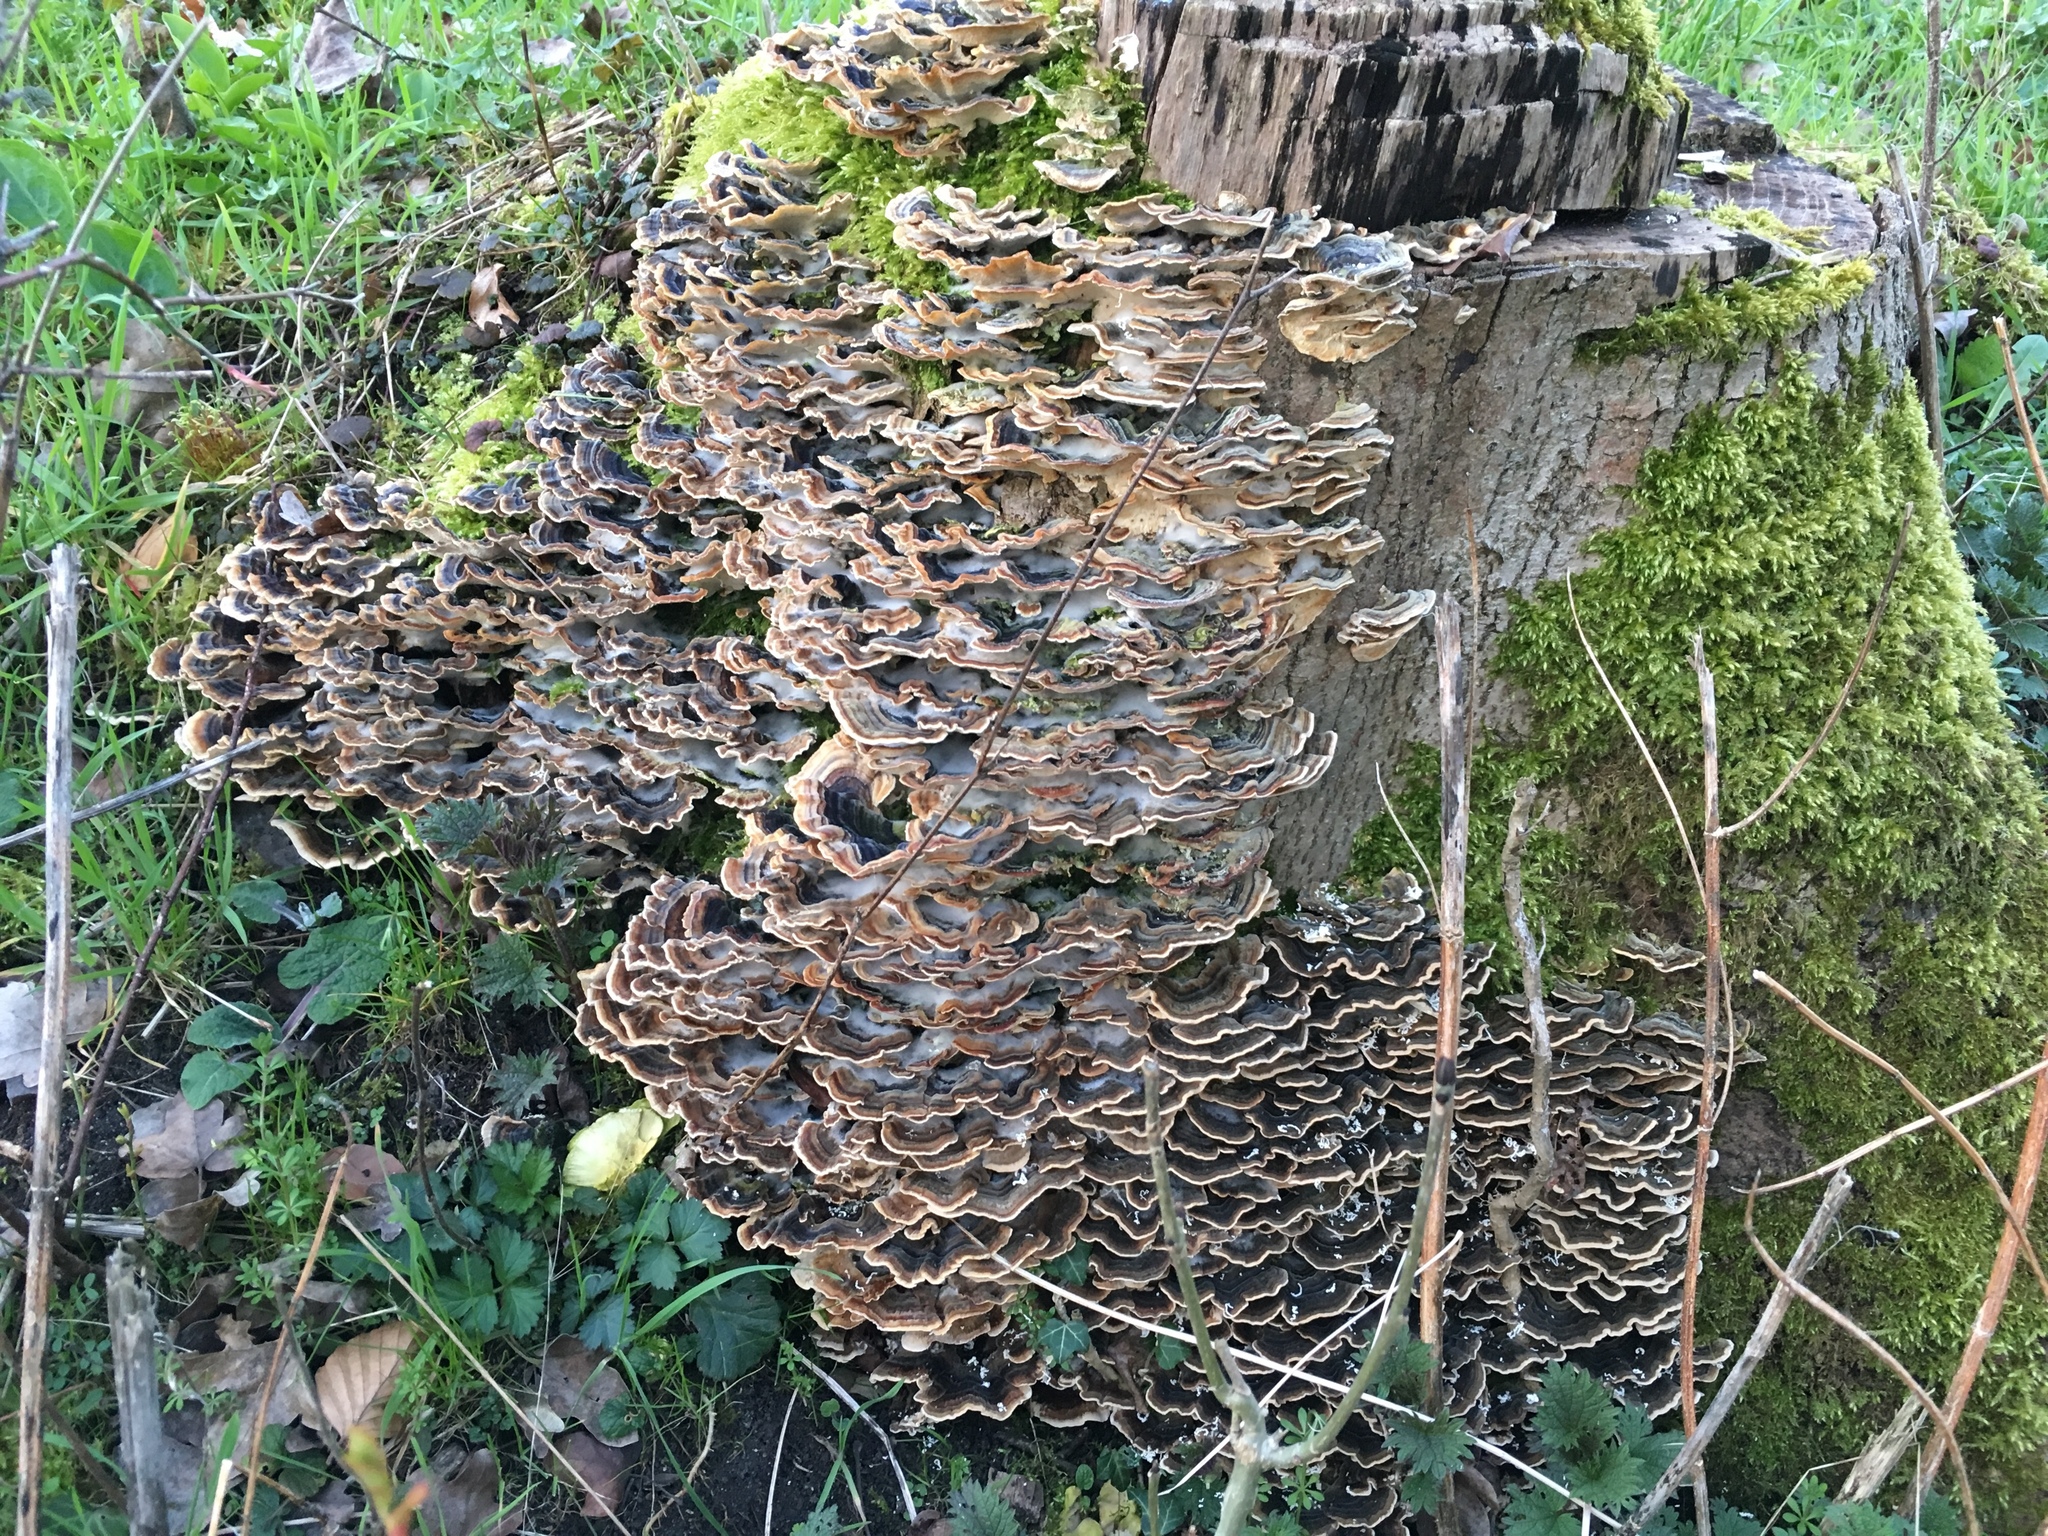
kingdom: Fungi
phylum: Basidiomycota
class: Agaricomycetes
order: Polyporales
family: Polyporaceae
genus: Trametes
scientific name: Trametes versicolor
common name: Turkeytail
